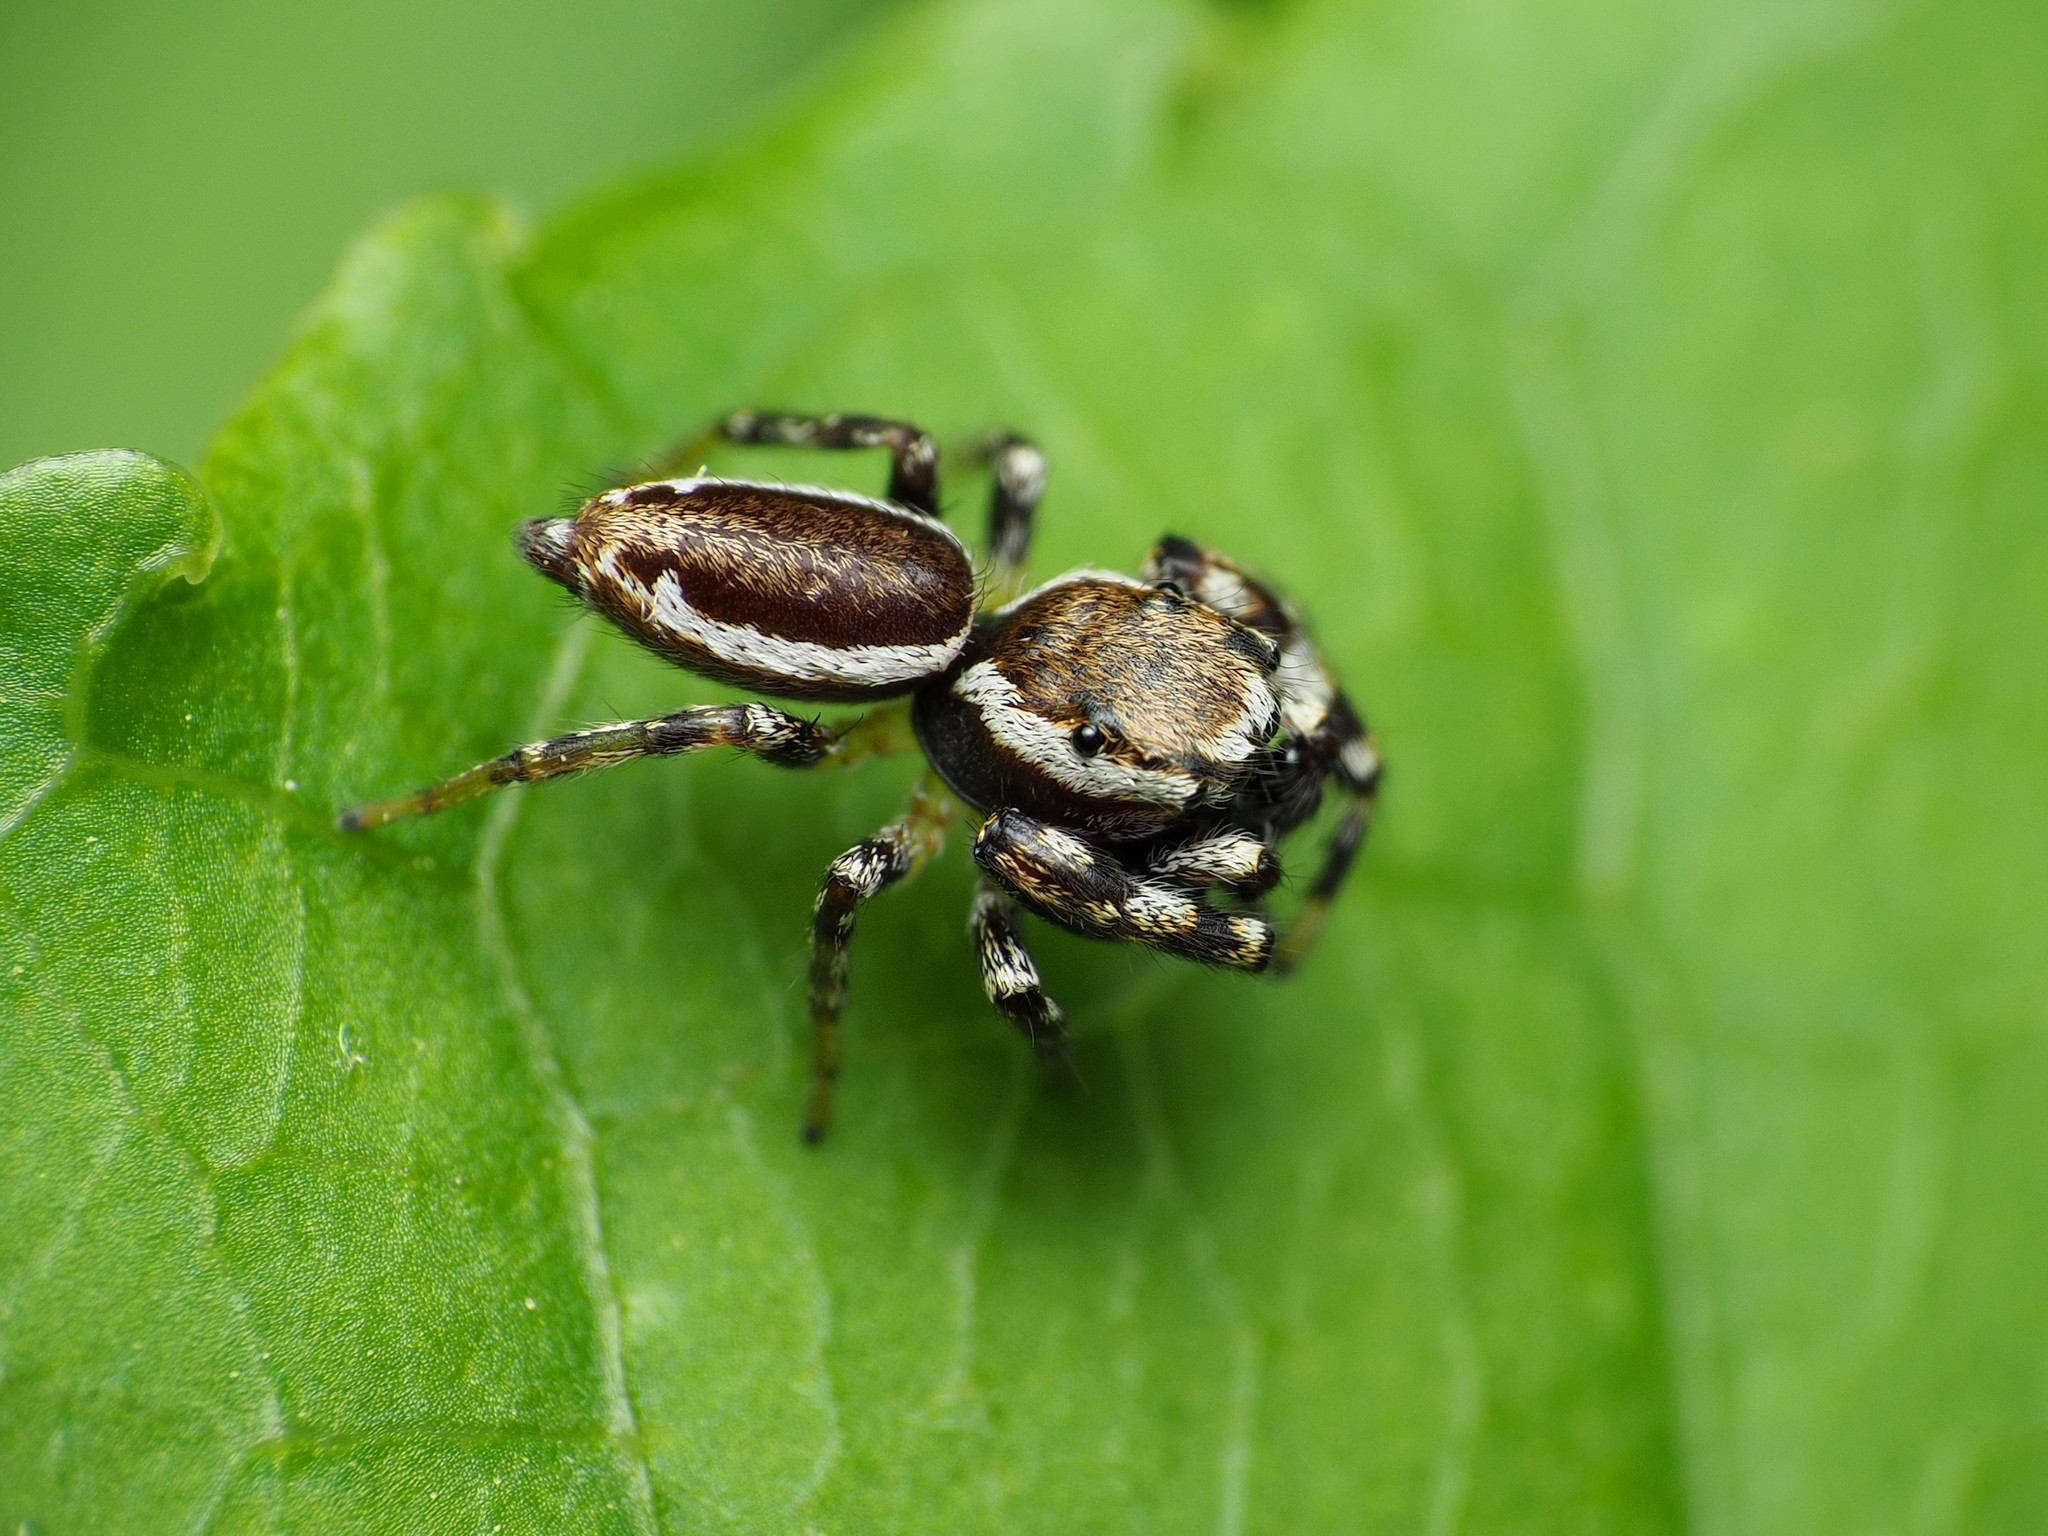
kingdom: Animalia
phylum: Arthropoda
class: Arachnida
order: Araneae
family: Salticidae
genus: Pelegrina
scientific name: Pelegrina proterva
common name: Common white-cheeked jumping spider
